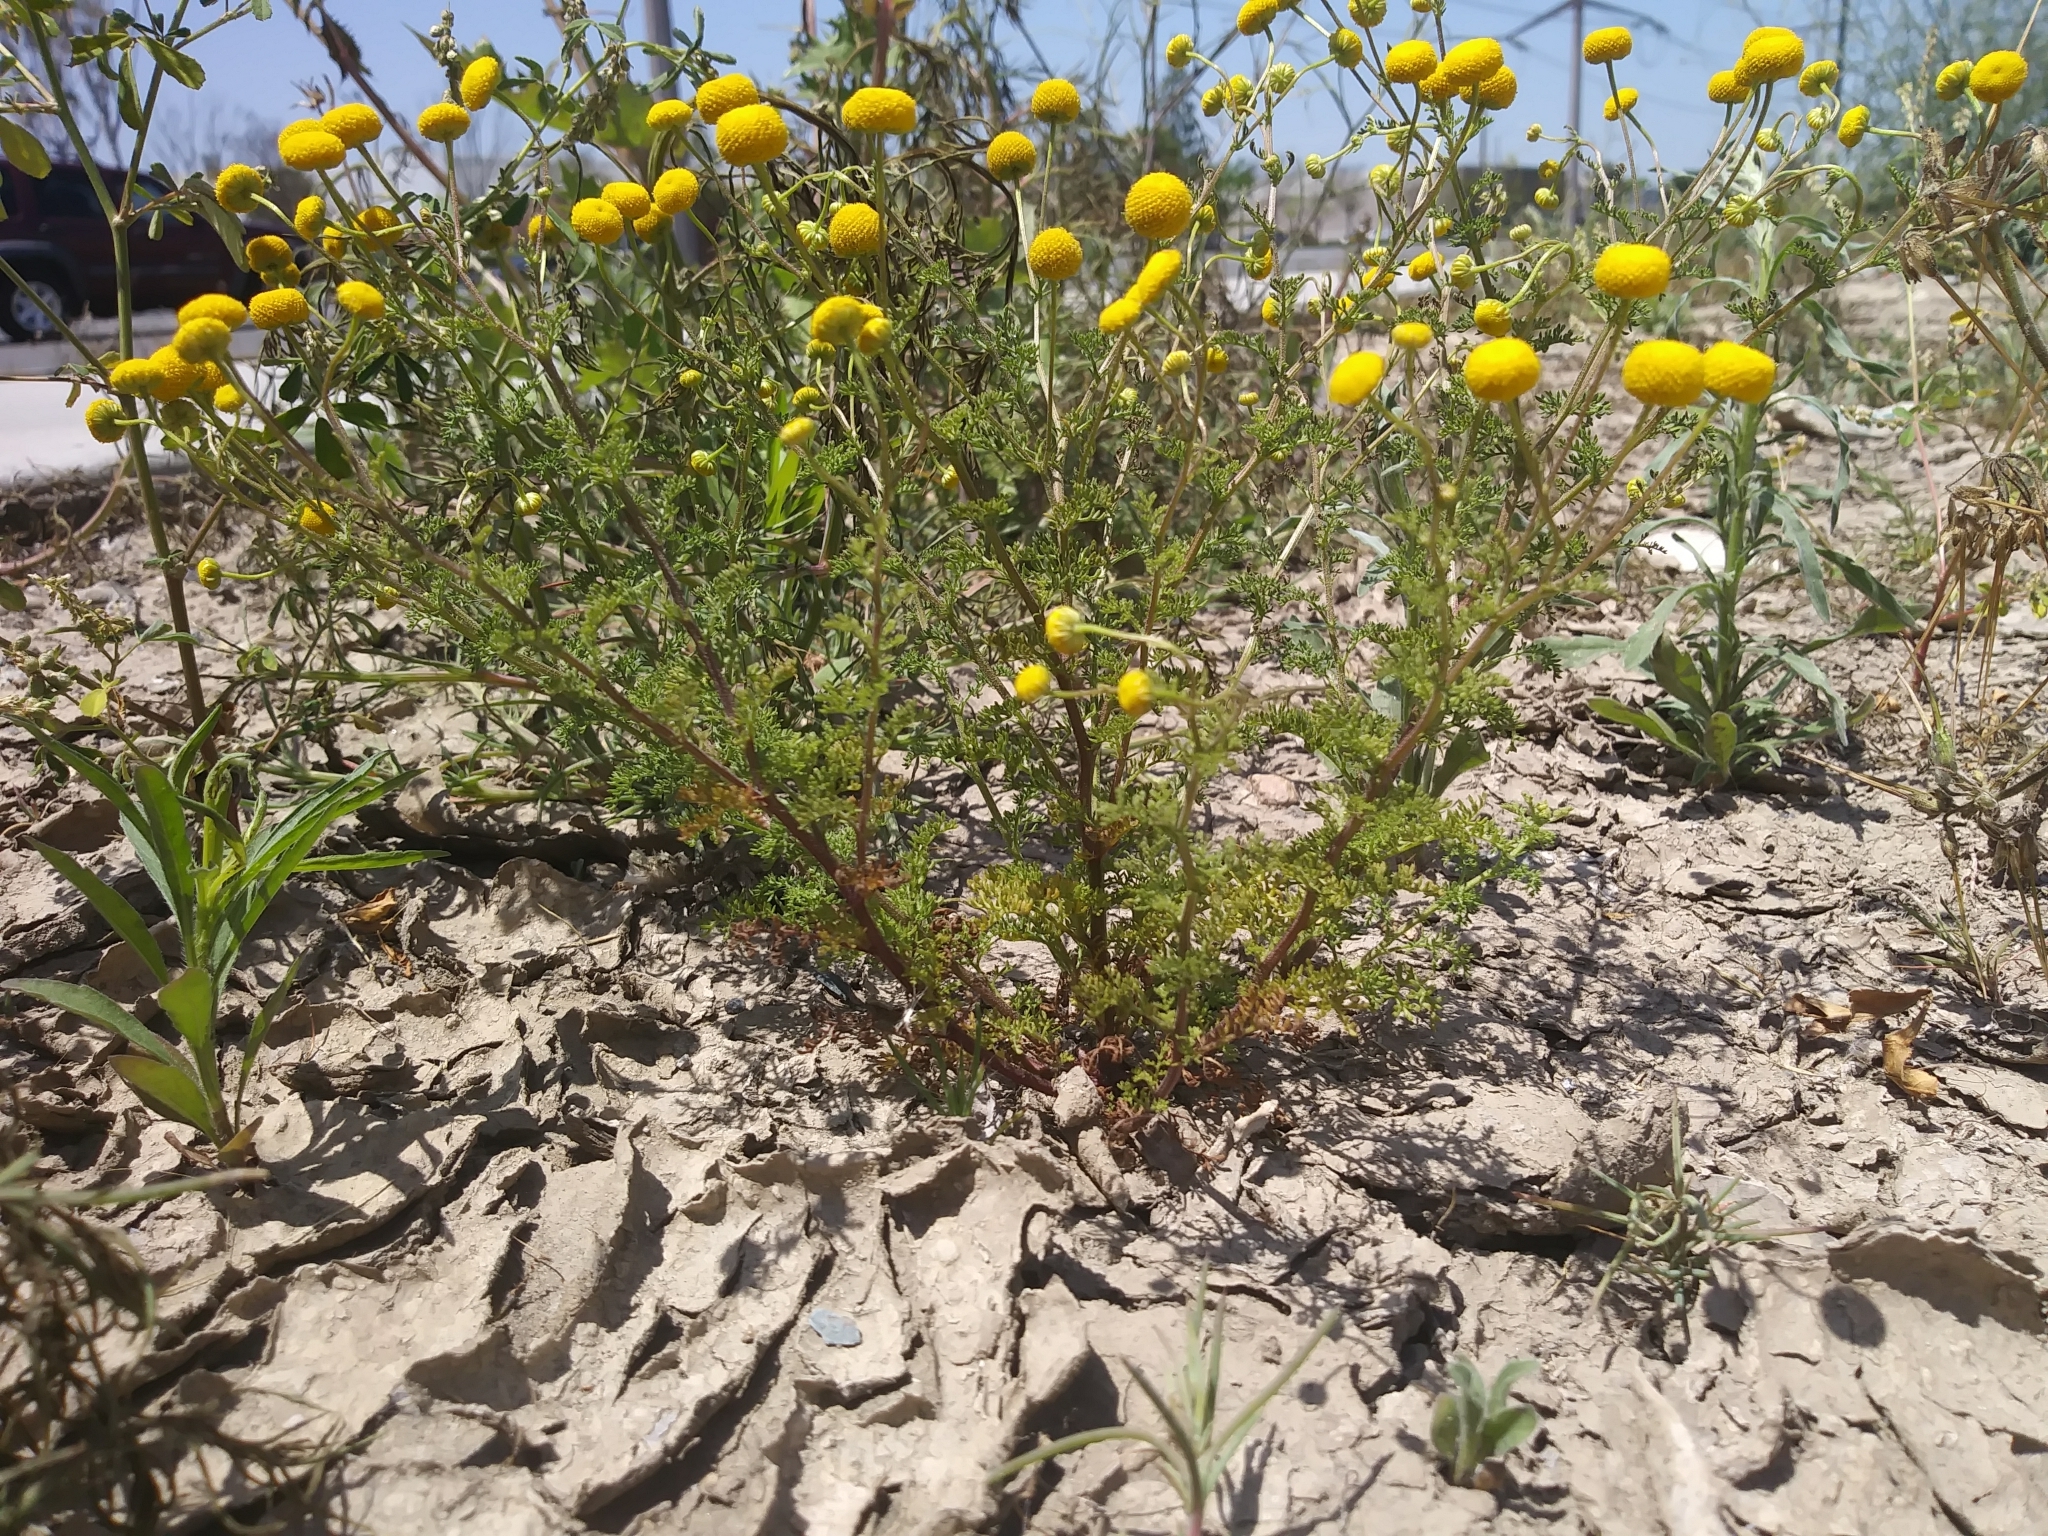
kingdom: Plantae
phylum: Tracheophyta
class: Magnoliopsida
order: Asterales
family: Asteraceae
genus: Oncosiphon
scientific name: Oncosiphon pilulifer
